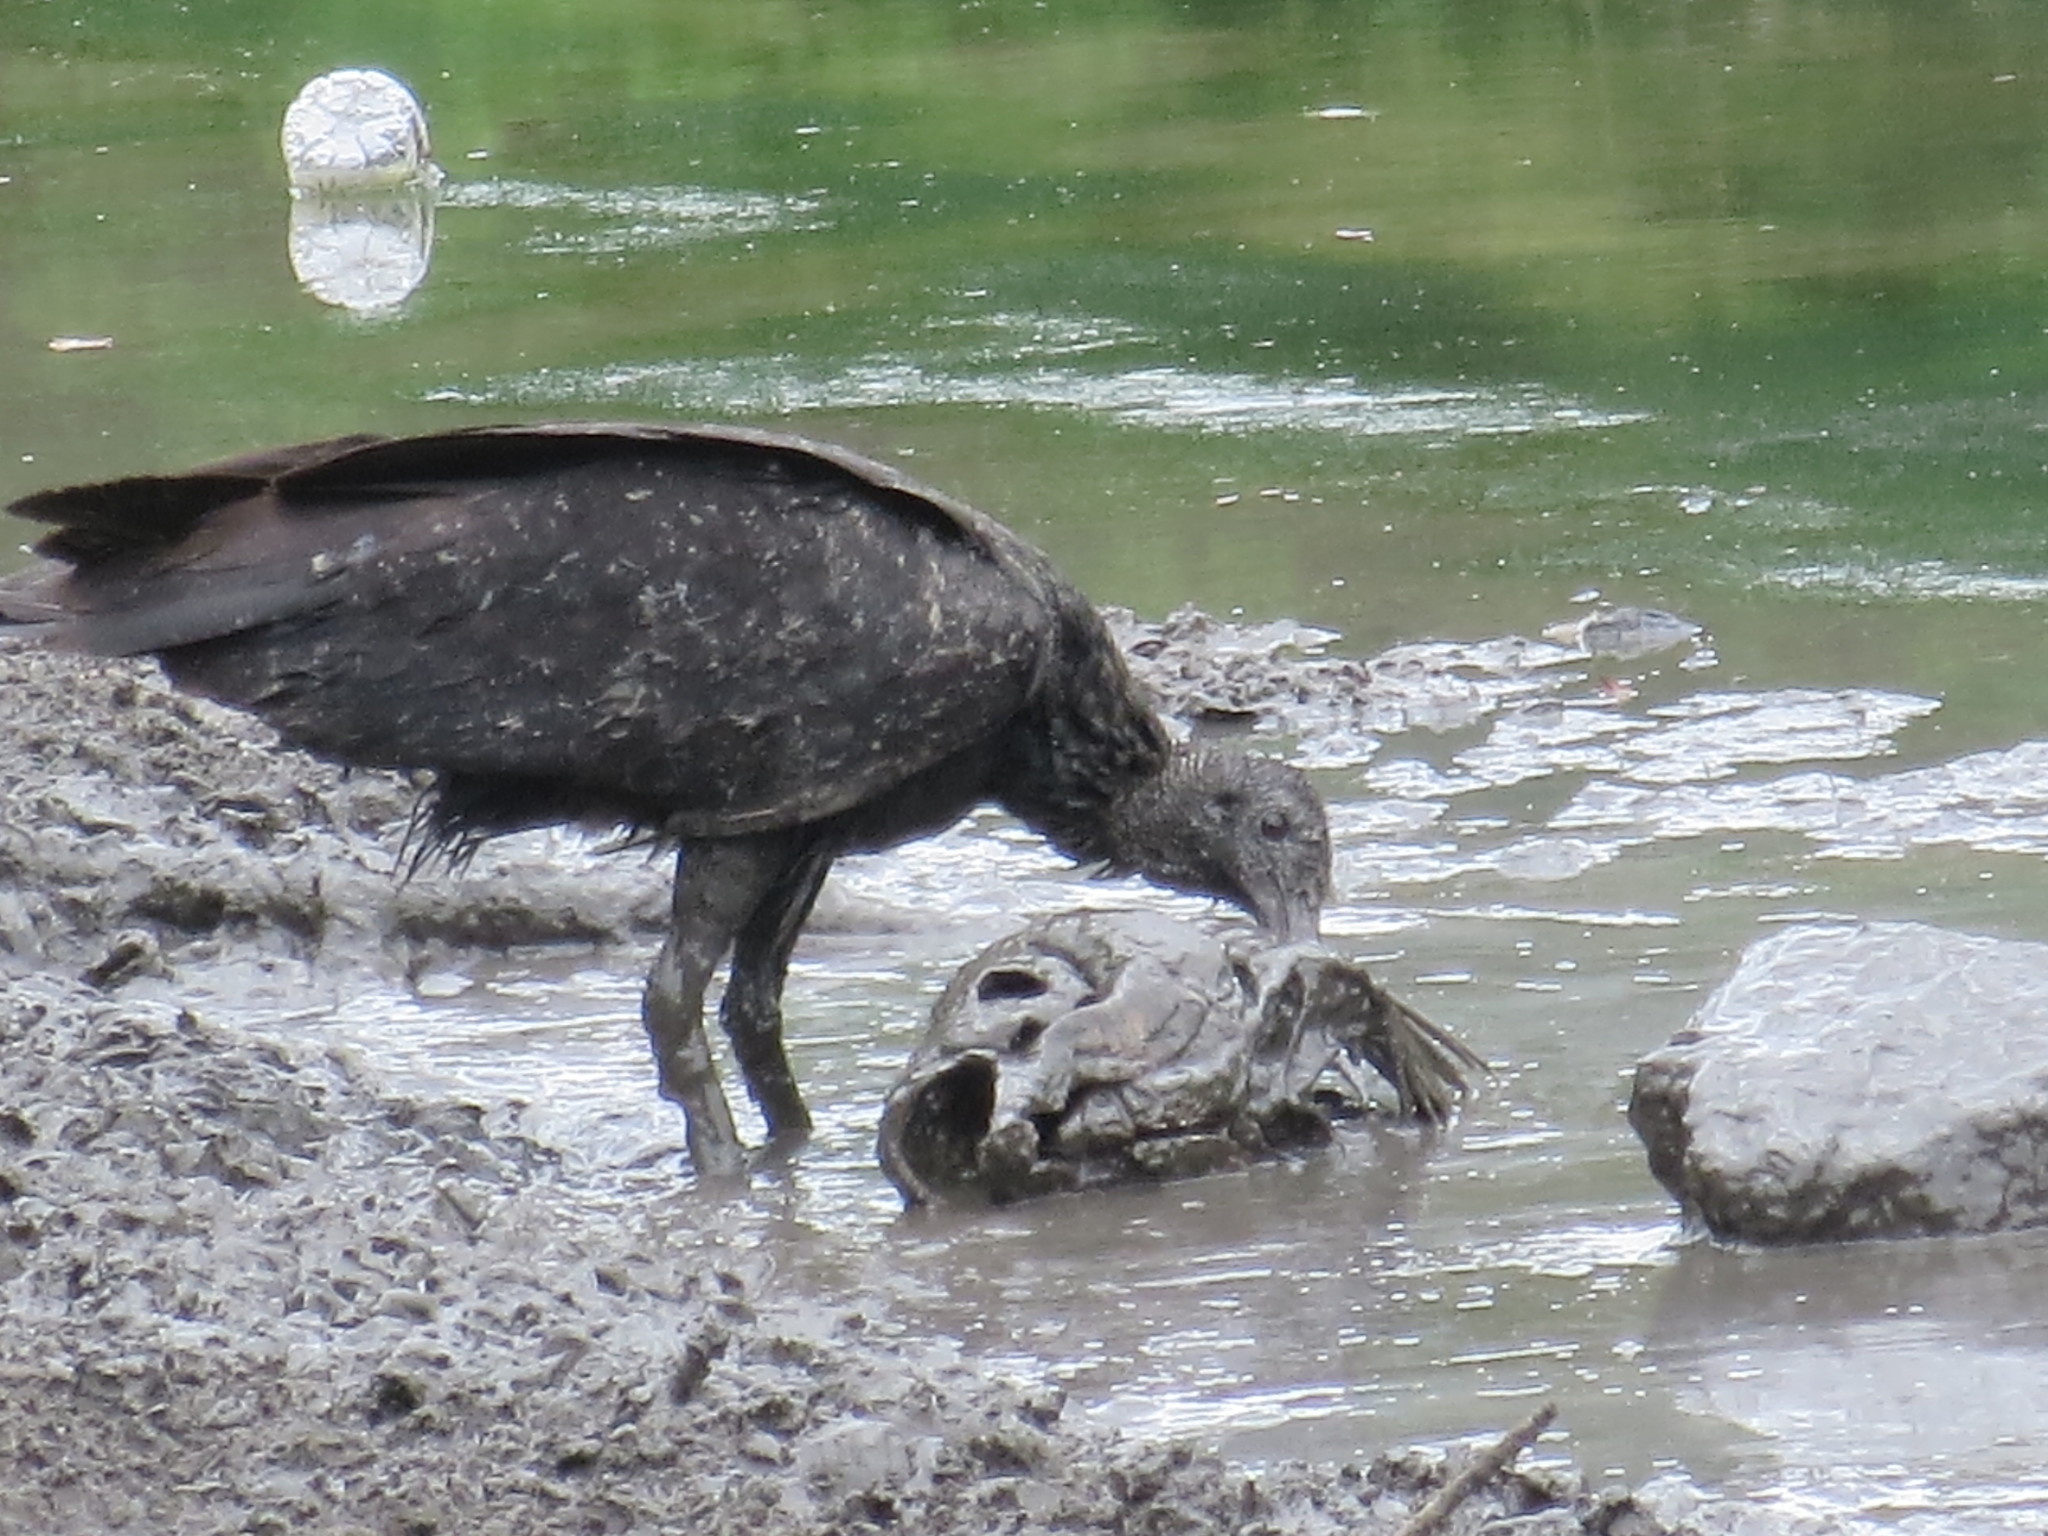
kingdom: Animalia
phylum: Chordata
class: Aves
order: Accipitriformes
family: Cathartidae
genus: Coragyps
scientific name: Coragyps atratus
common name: Black vulture
